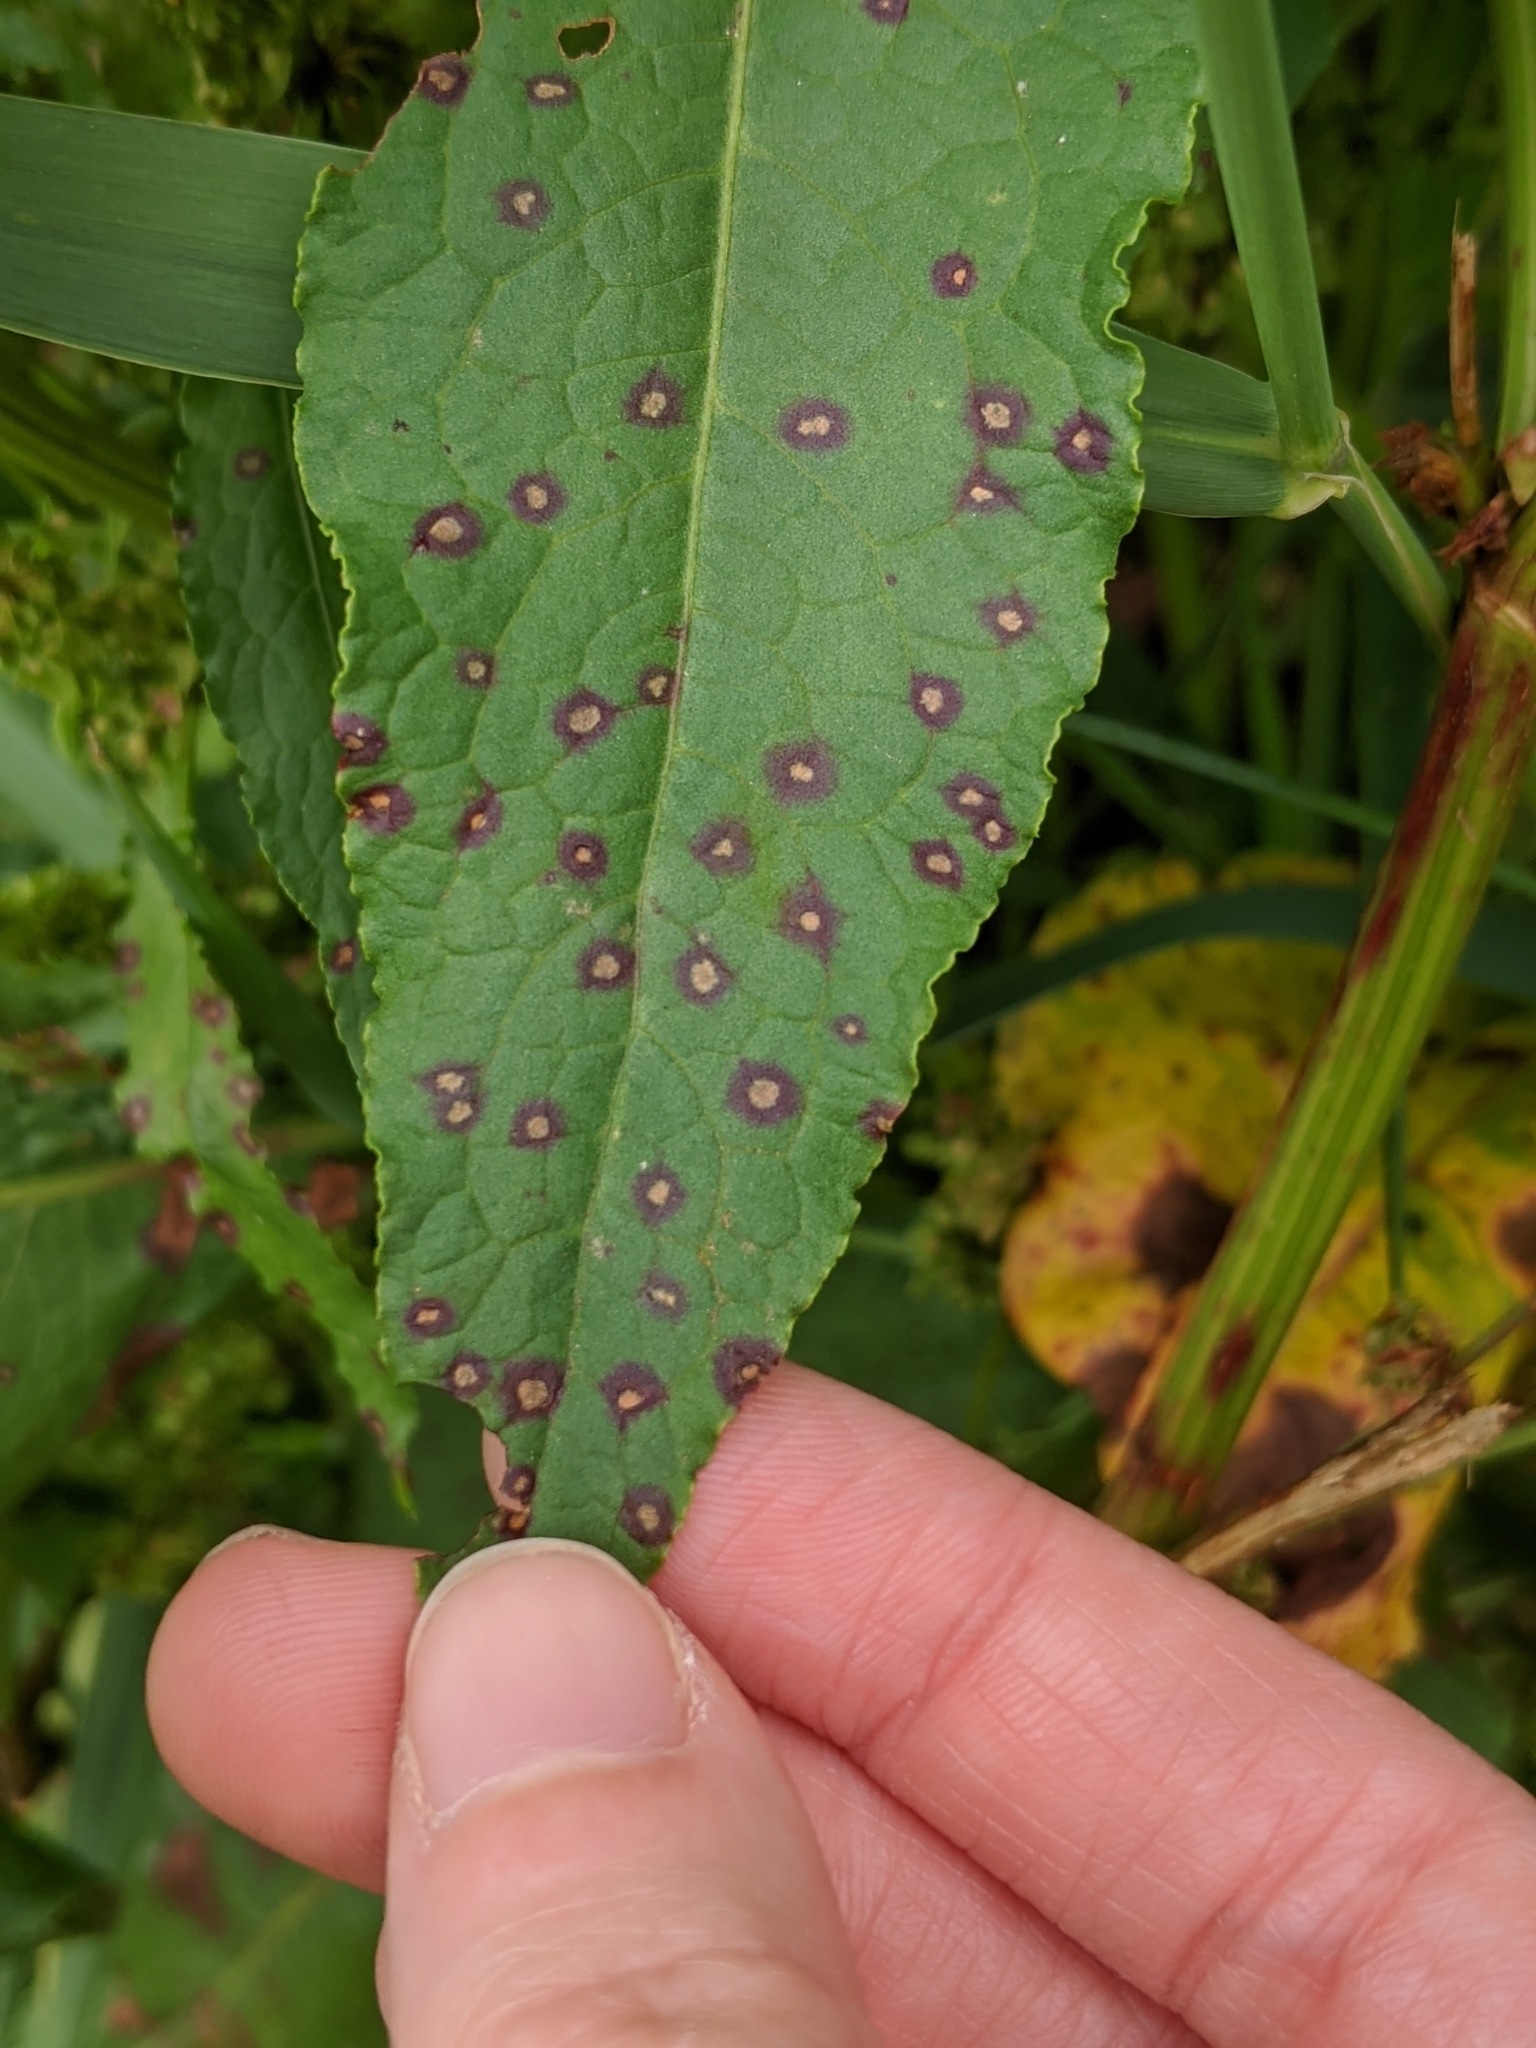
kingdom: Fungi
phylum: Ascomycota
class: Dothideomycetes
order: Mycosphaerellales
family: Mycosphaerellaceae
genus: Ramularia
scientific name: Ramularia rubella
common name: Red dock spot
